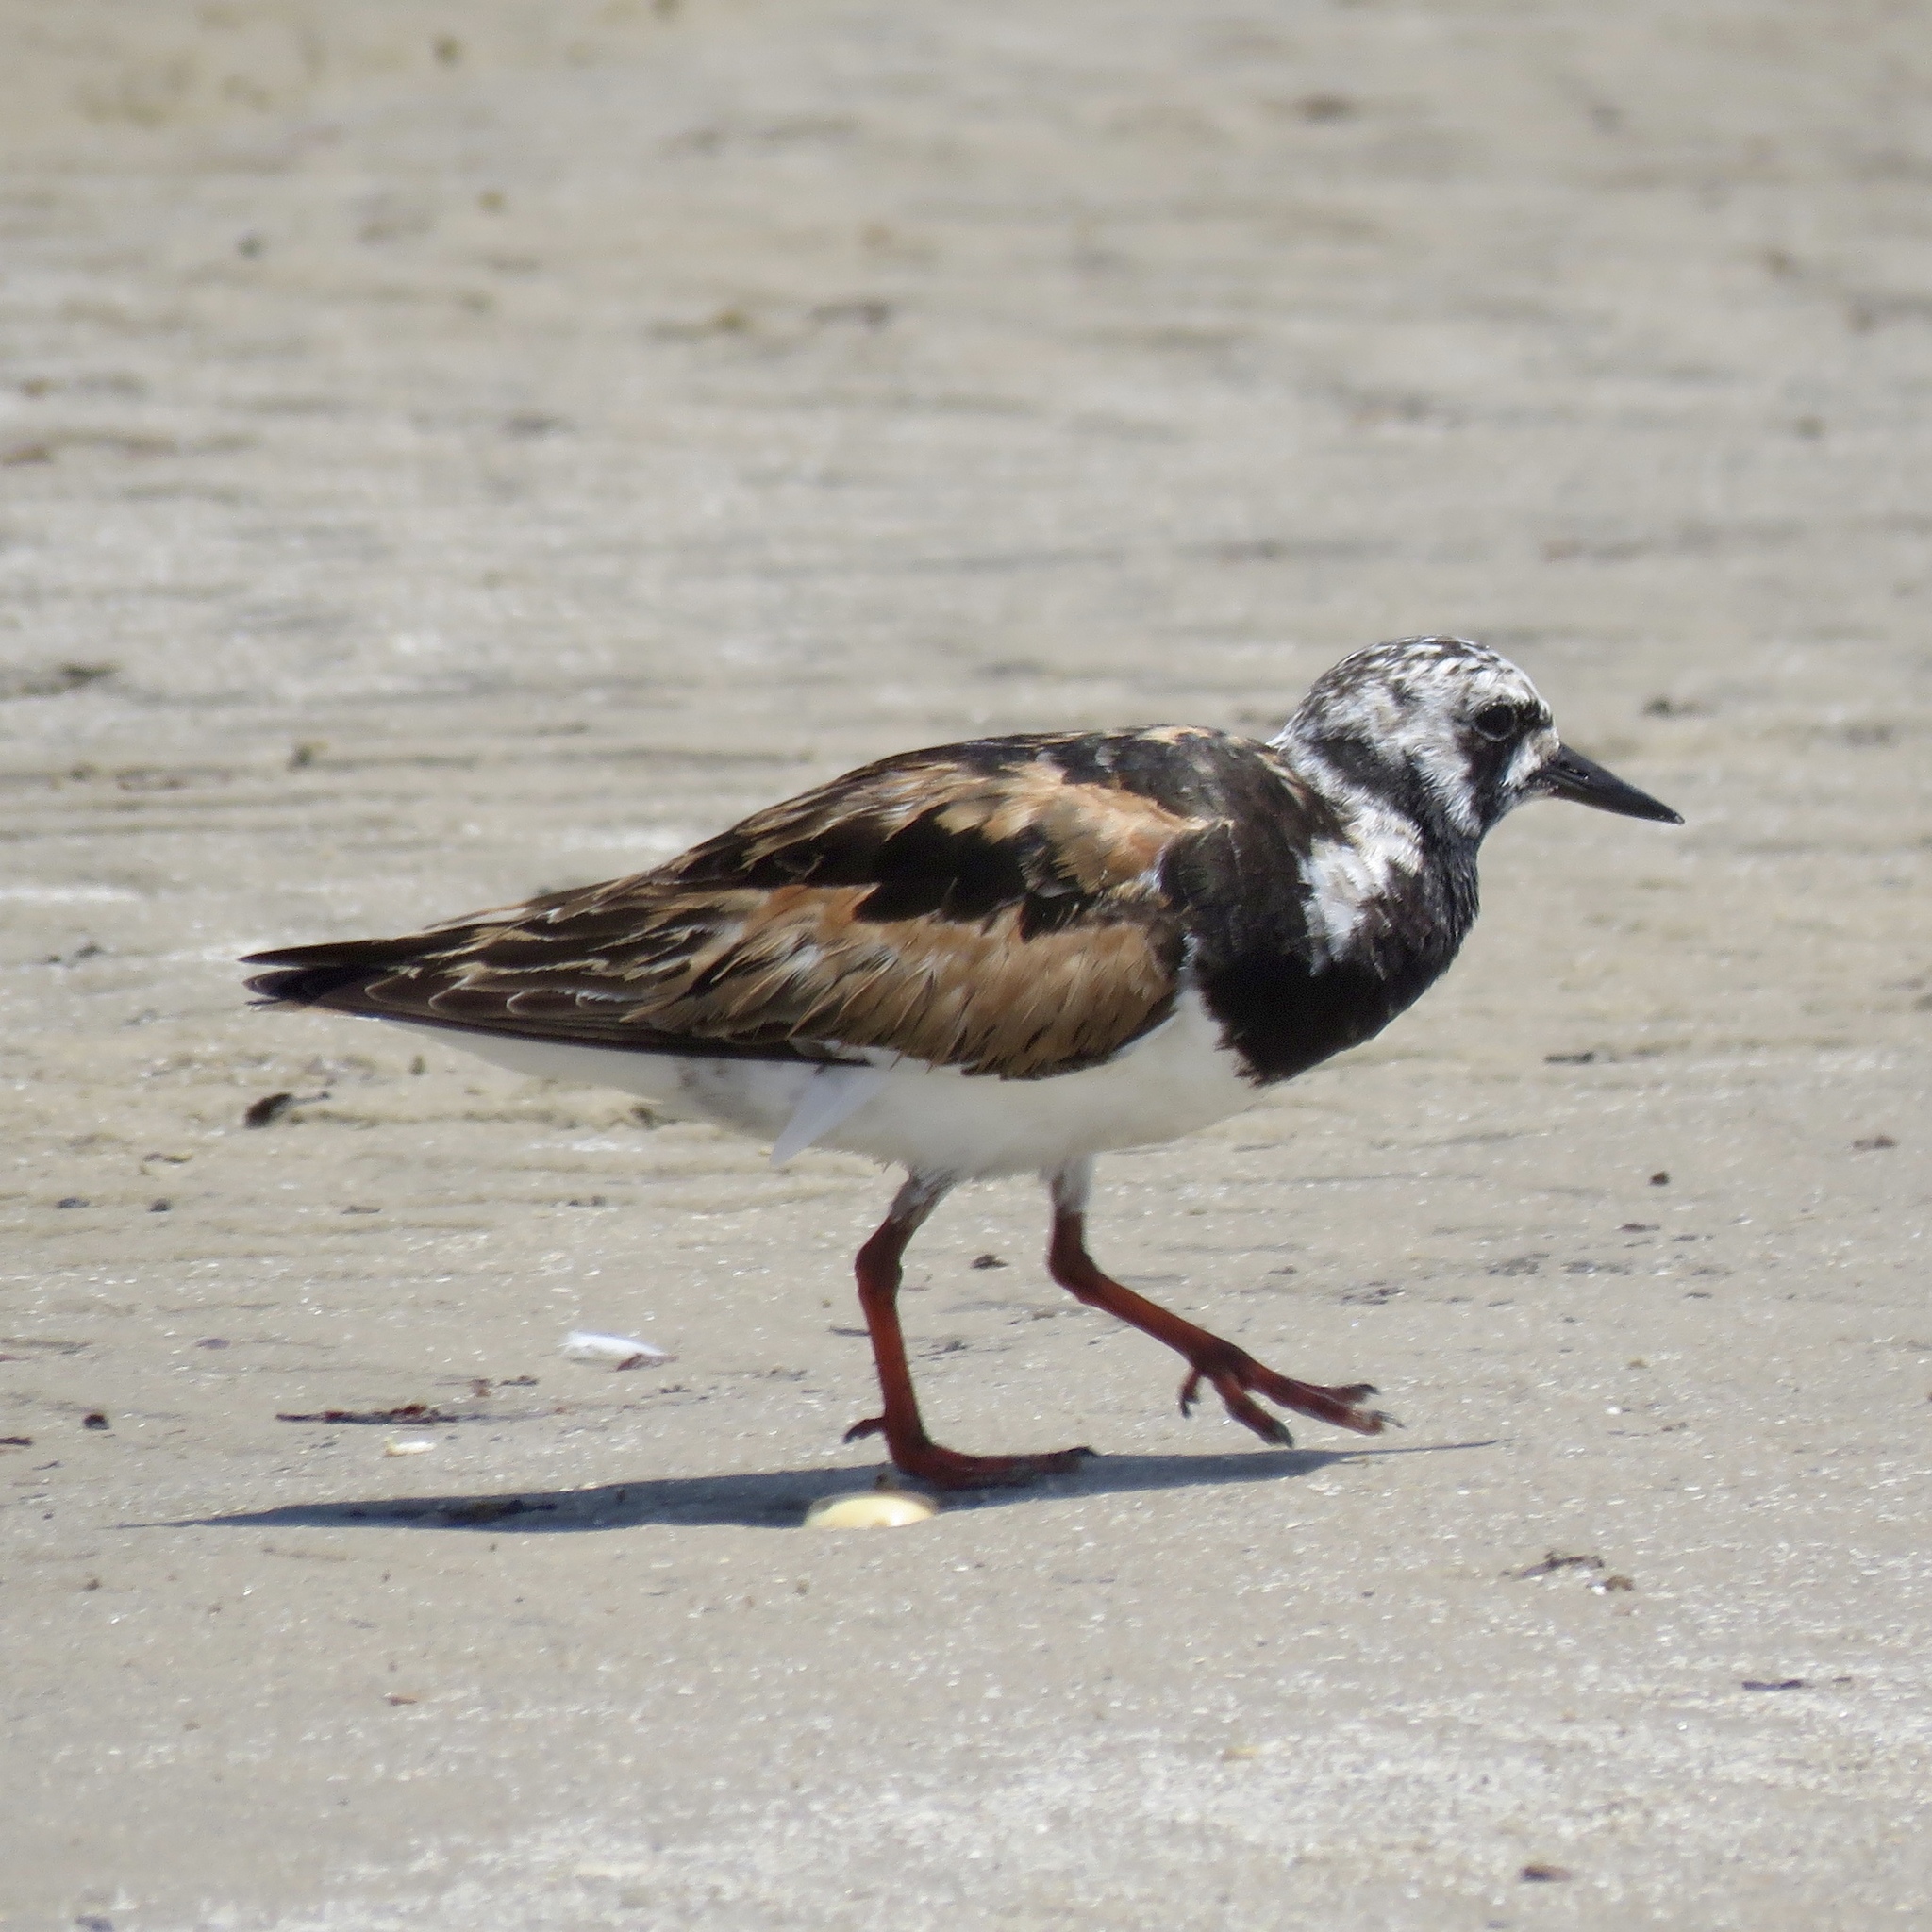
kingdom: Animalia
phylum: Chordata
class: Aves
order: Charadriiformes
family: Scolopacidae
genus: Arenaria
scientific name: Arenaria interpres
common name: Ruddy turnstone
